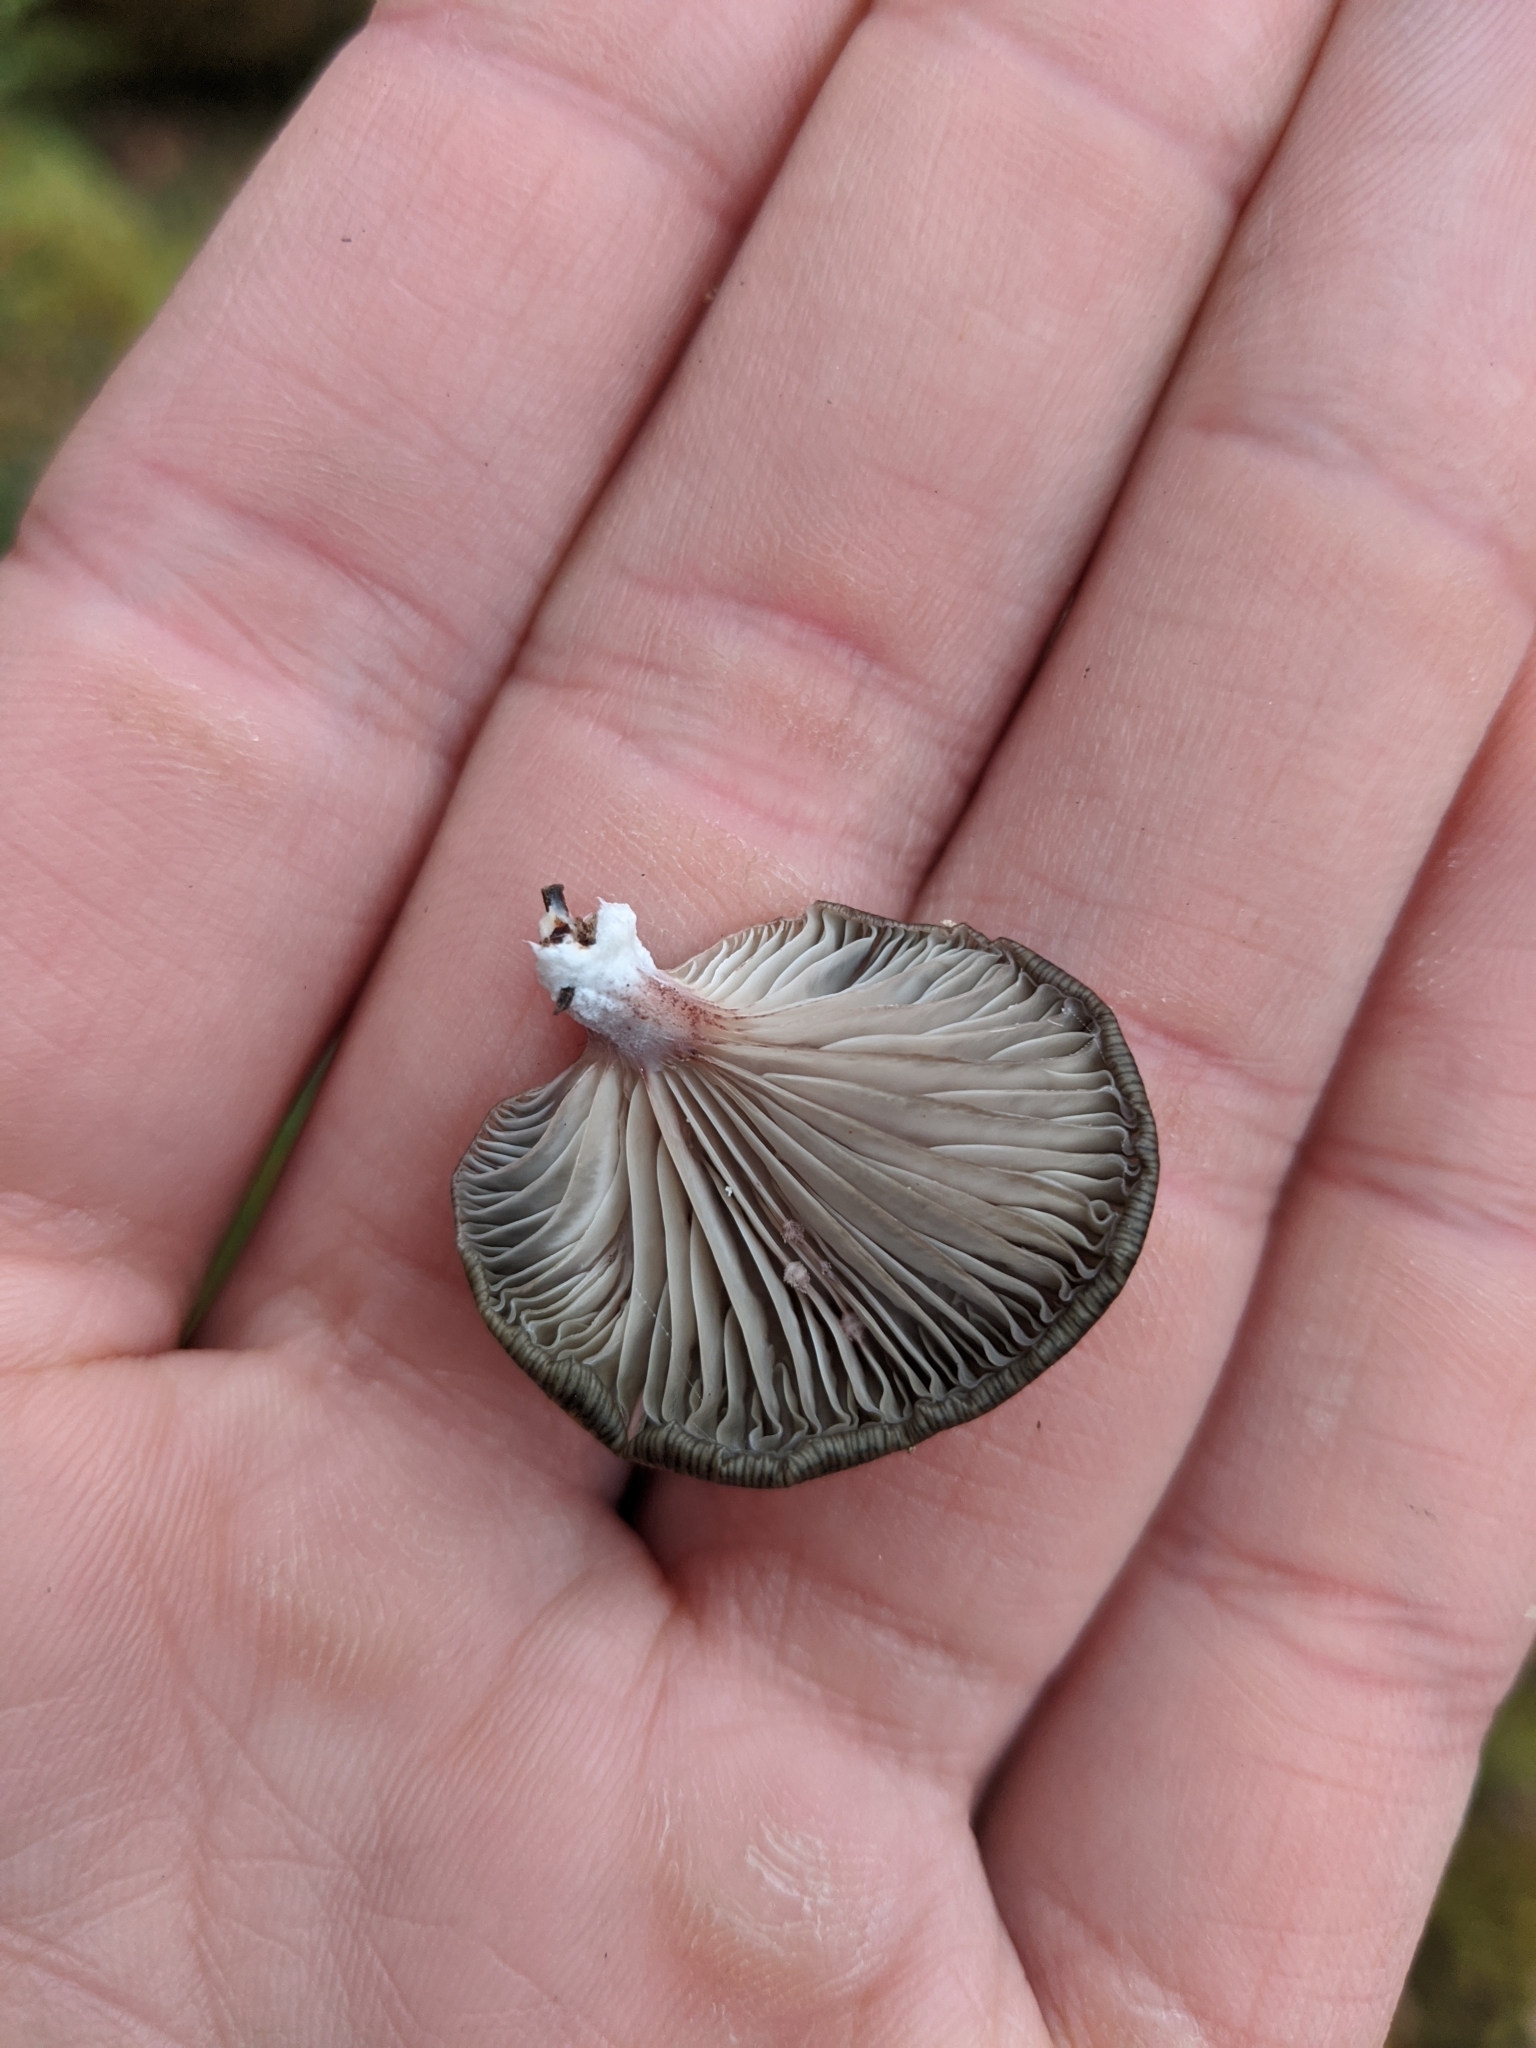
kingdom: Fungi
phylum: Basidiomycota
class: Agaricomycetes
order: Agaricales
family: Mycenaceae
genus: Panellus
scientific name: Panellus longinquus
